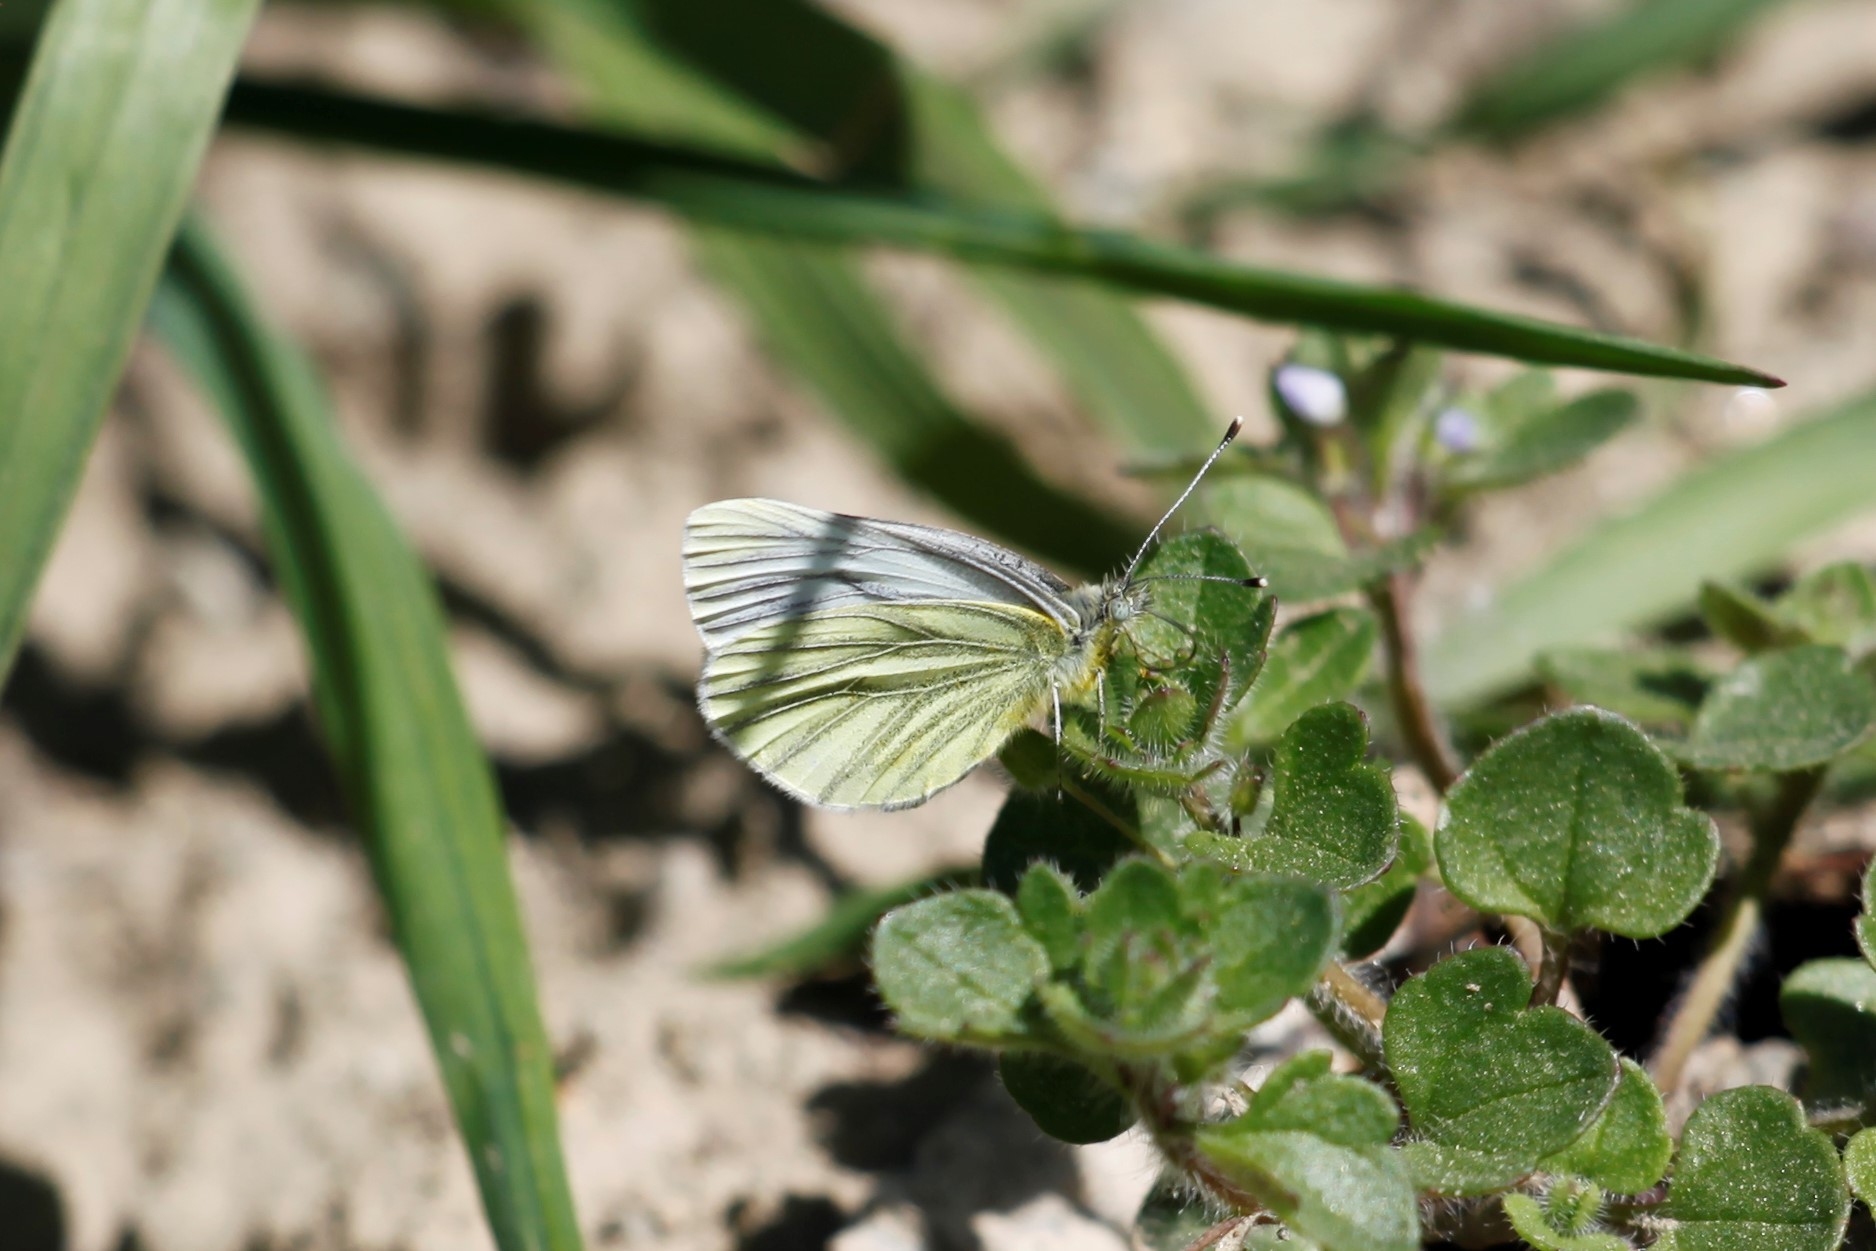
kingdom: Animalia
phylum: Arthropoda
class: Insecta
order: Lepidoptera
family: Pieridae
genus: Pieris
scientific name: Pieris napi
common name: Green-veined white
